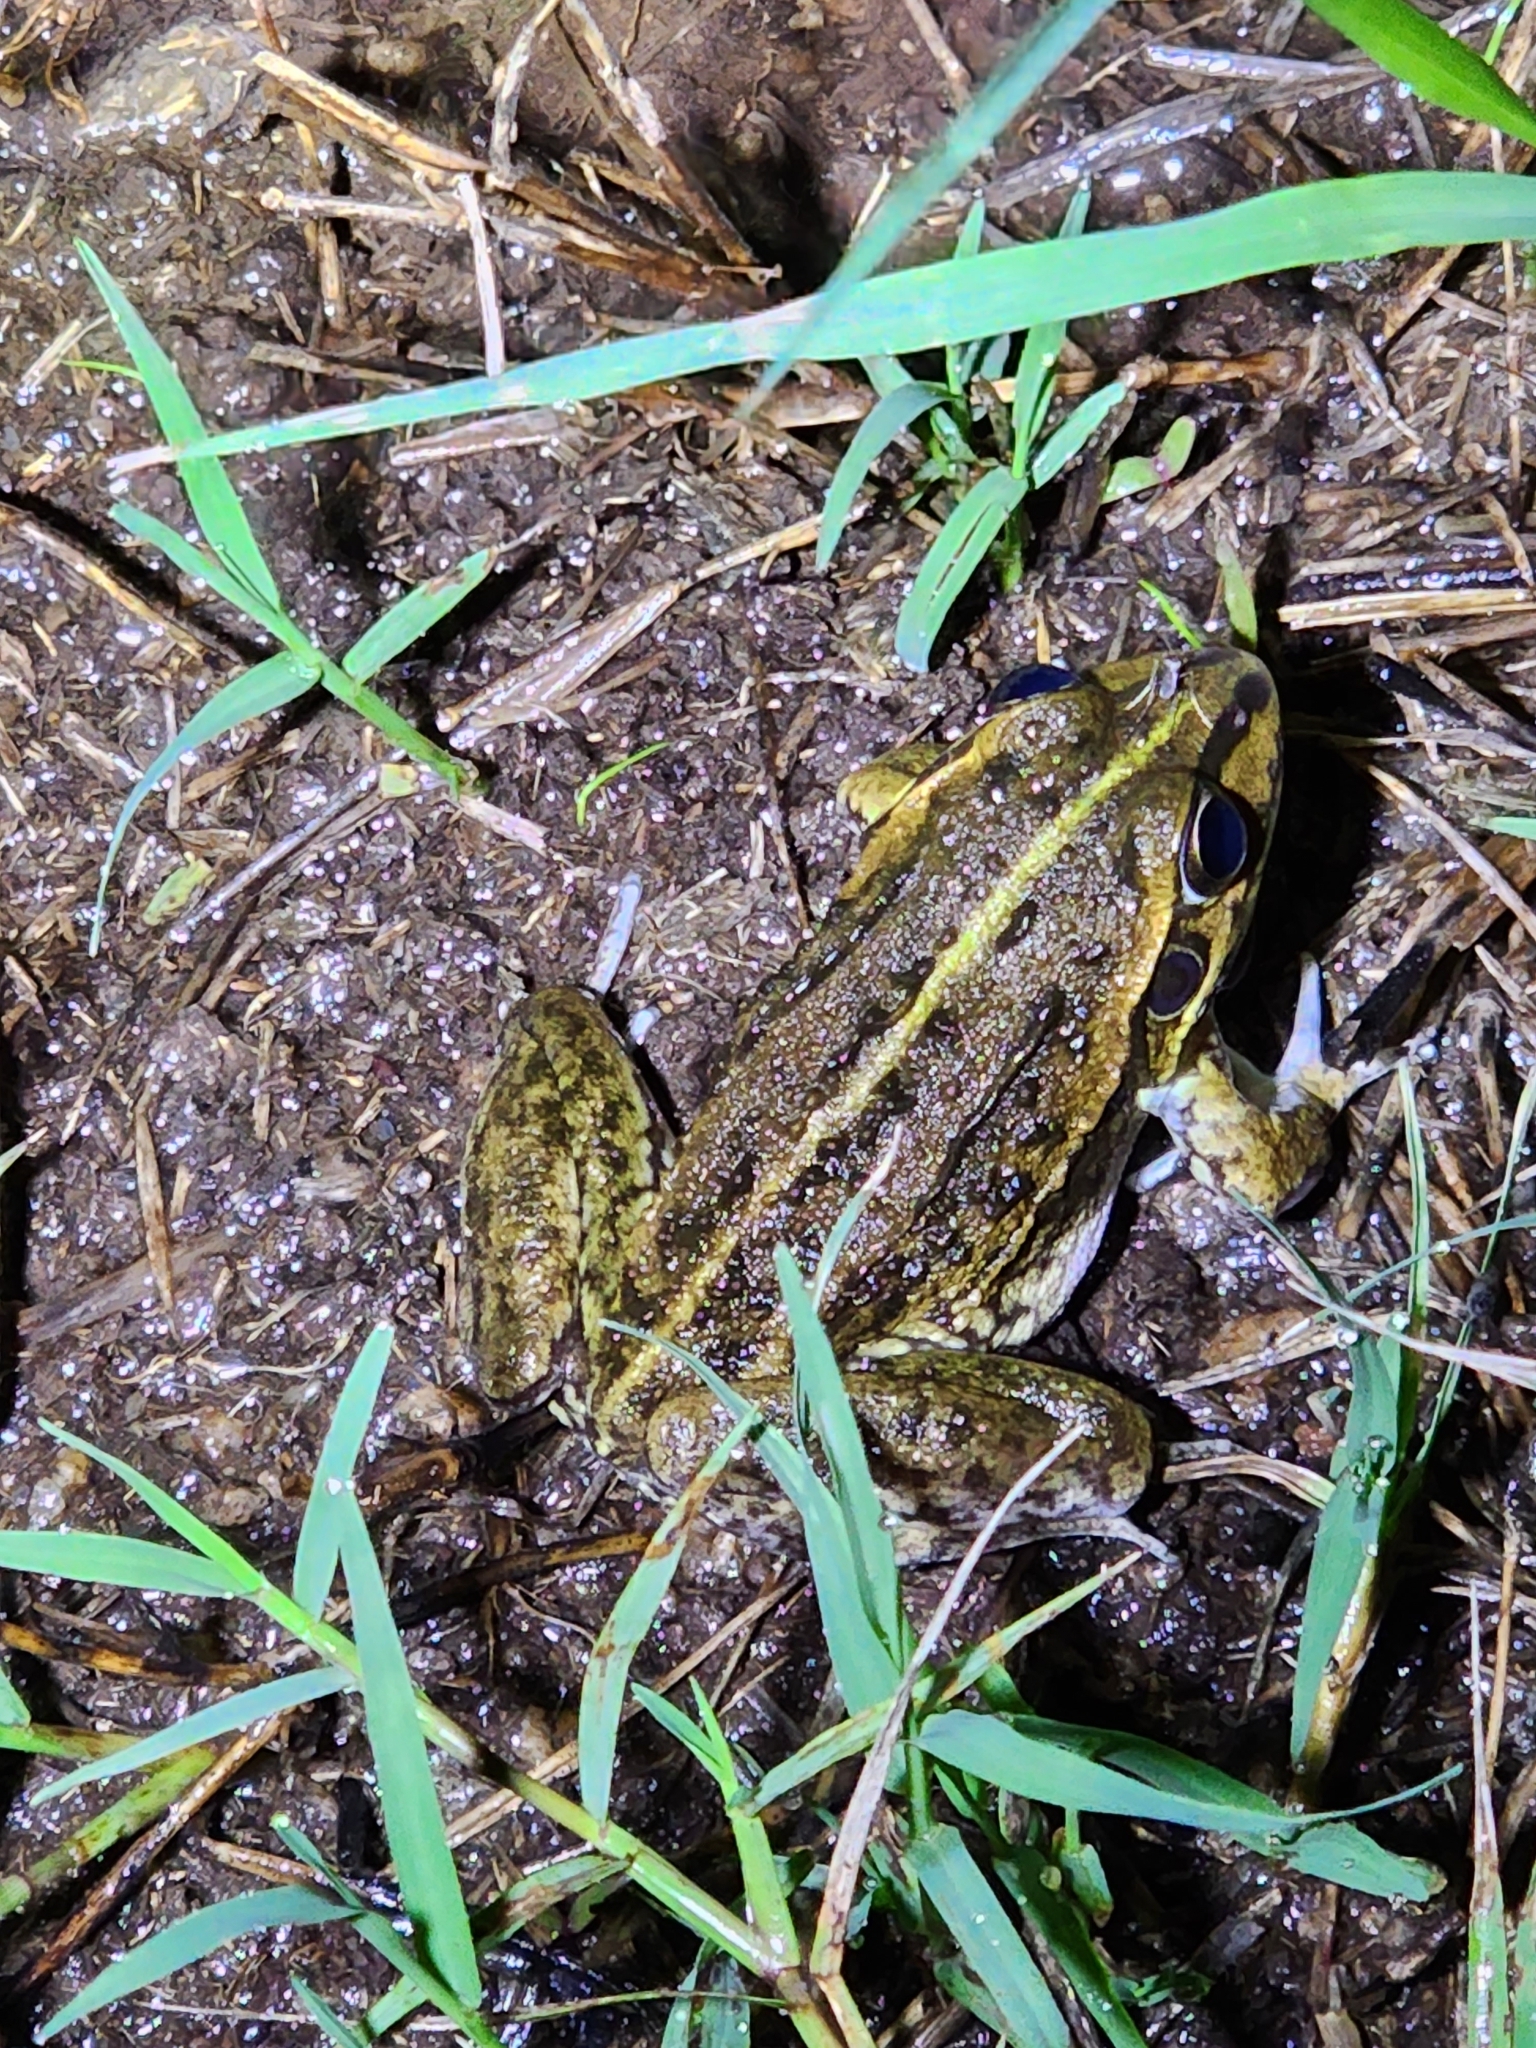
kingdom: Animalia
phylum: Chordata
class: Amphibia
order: Anura
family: Pelodryadidae
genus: Ranoidea
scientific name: Ranoidea alboguttata
